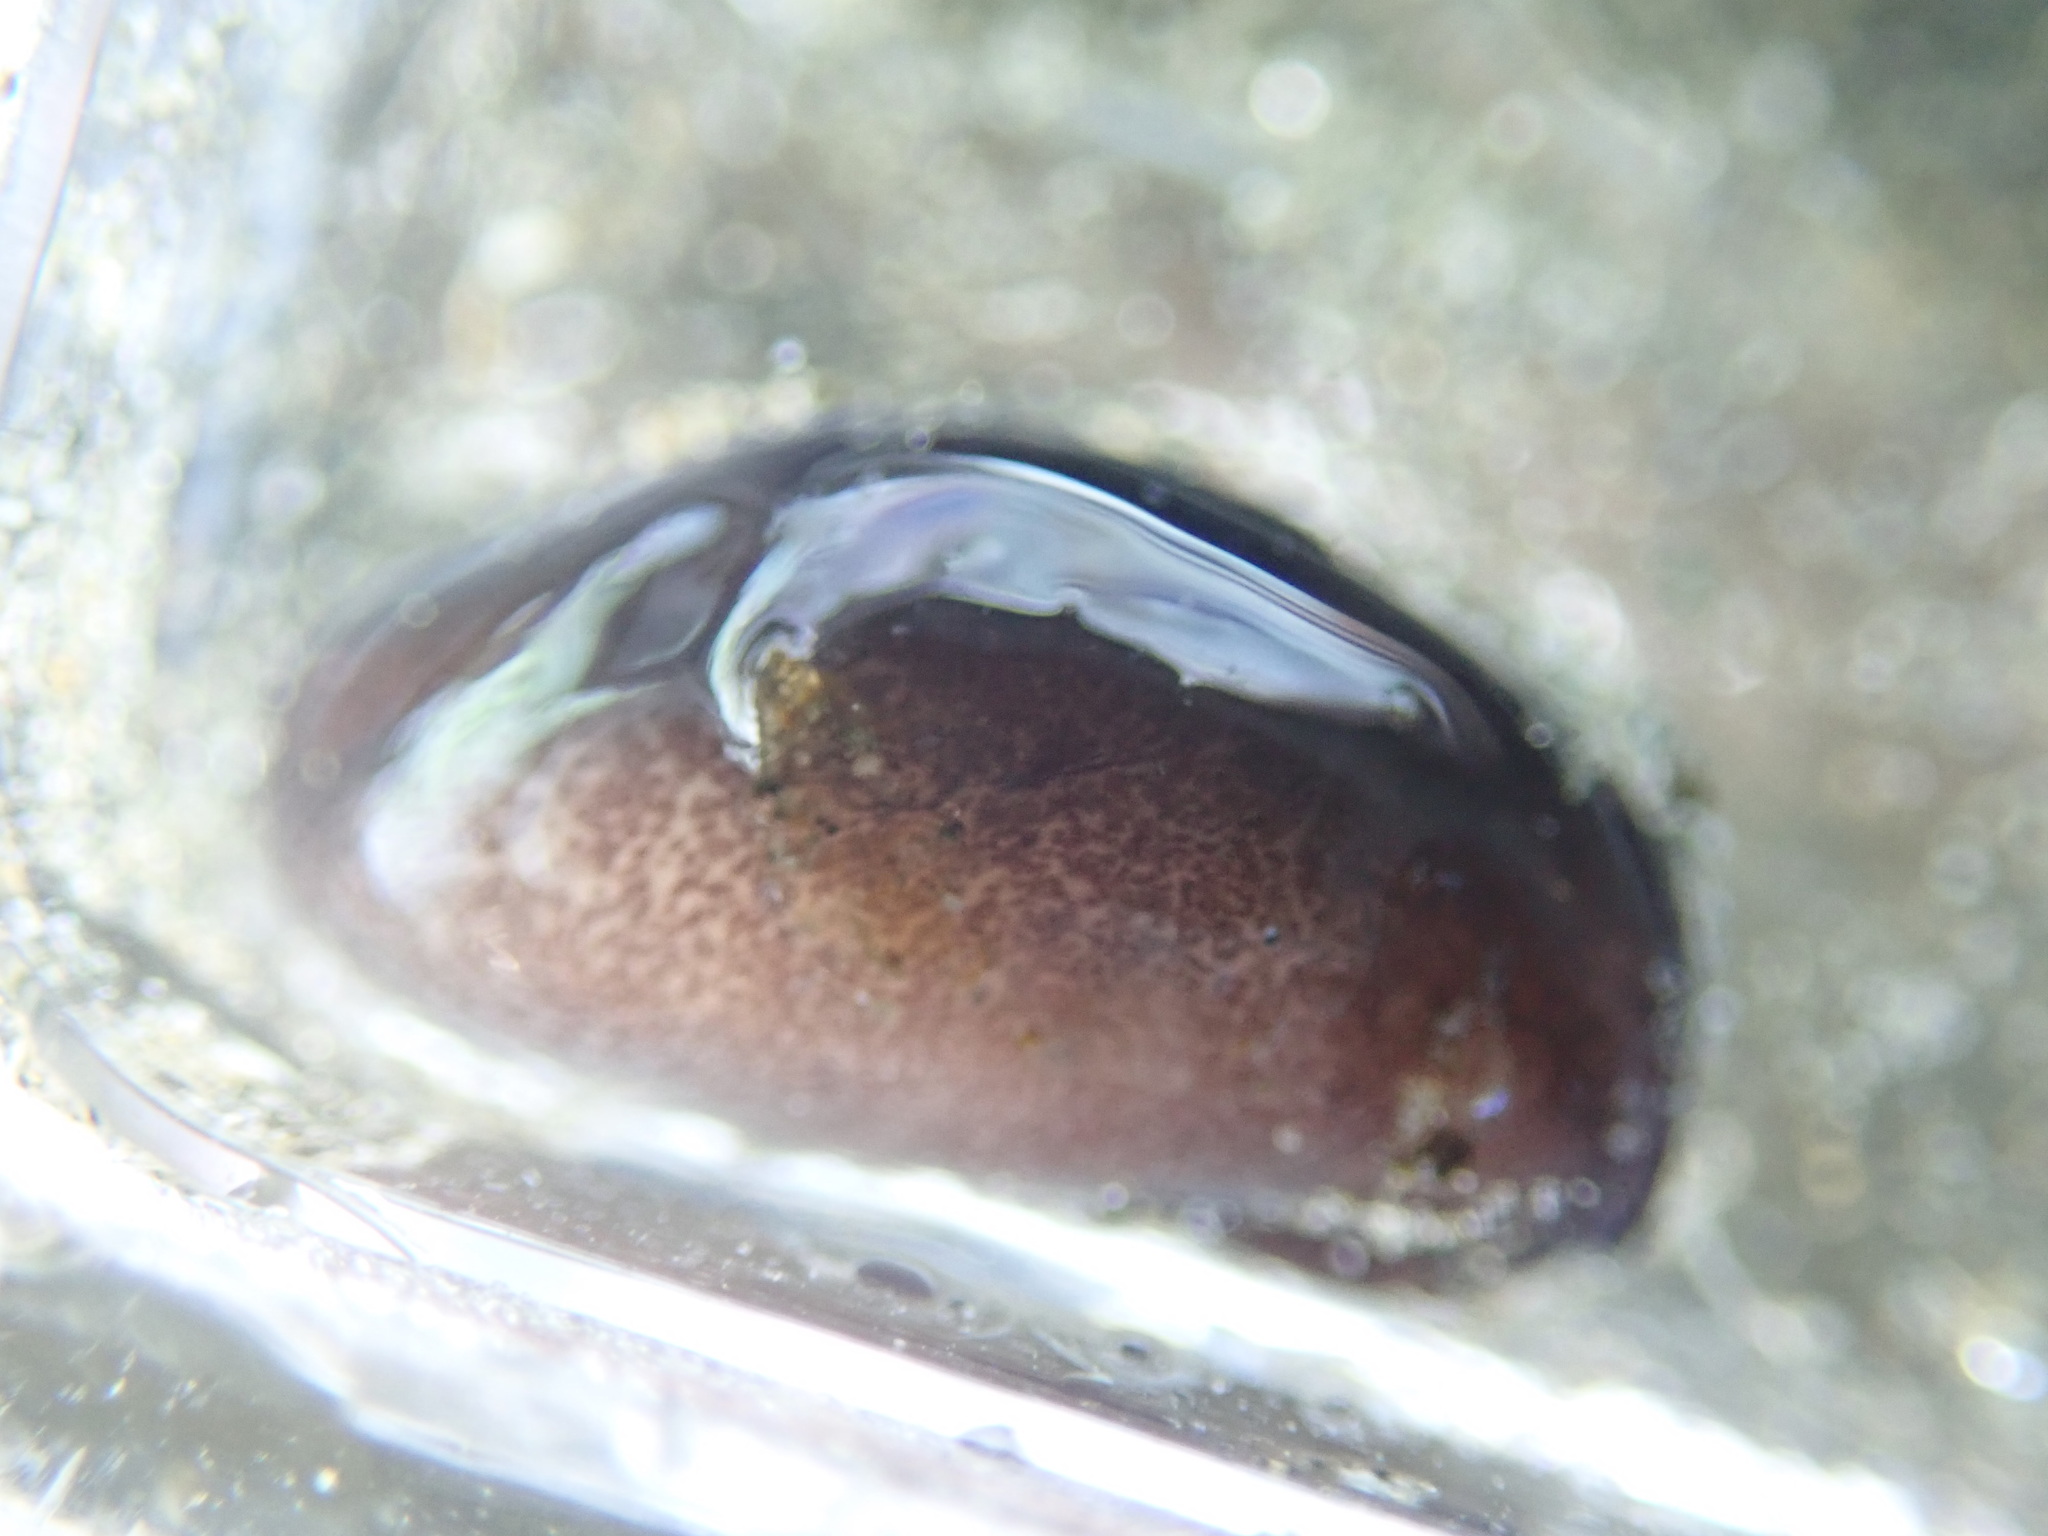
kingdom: Animalia
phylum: Mollusca
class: Gastropoda
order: Cephalaspidea
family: Aglajidae
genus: Melanochlamys
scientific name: Melanochlamys diomedea
